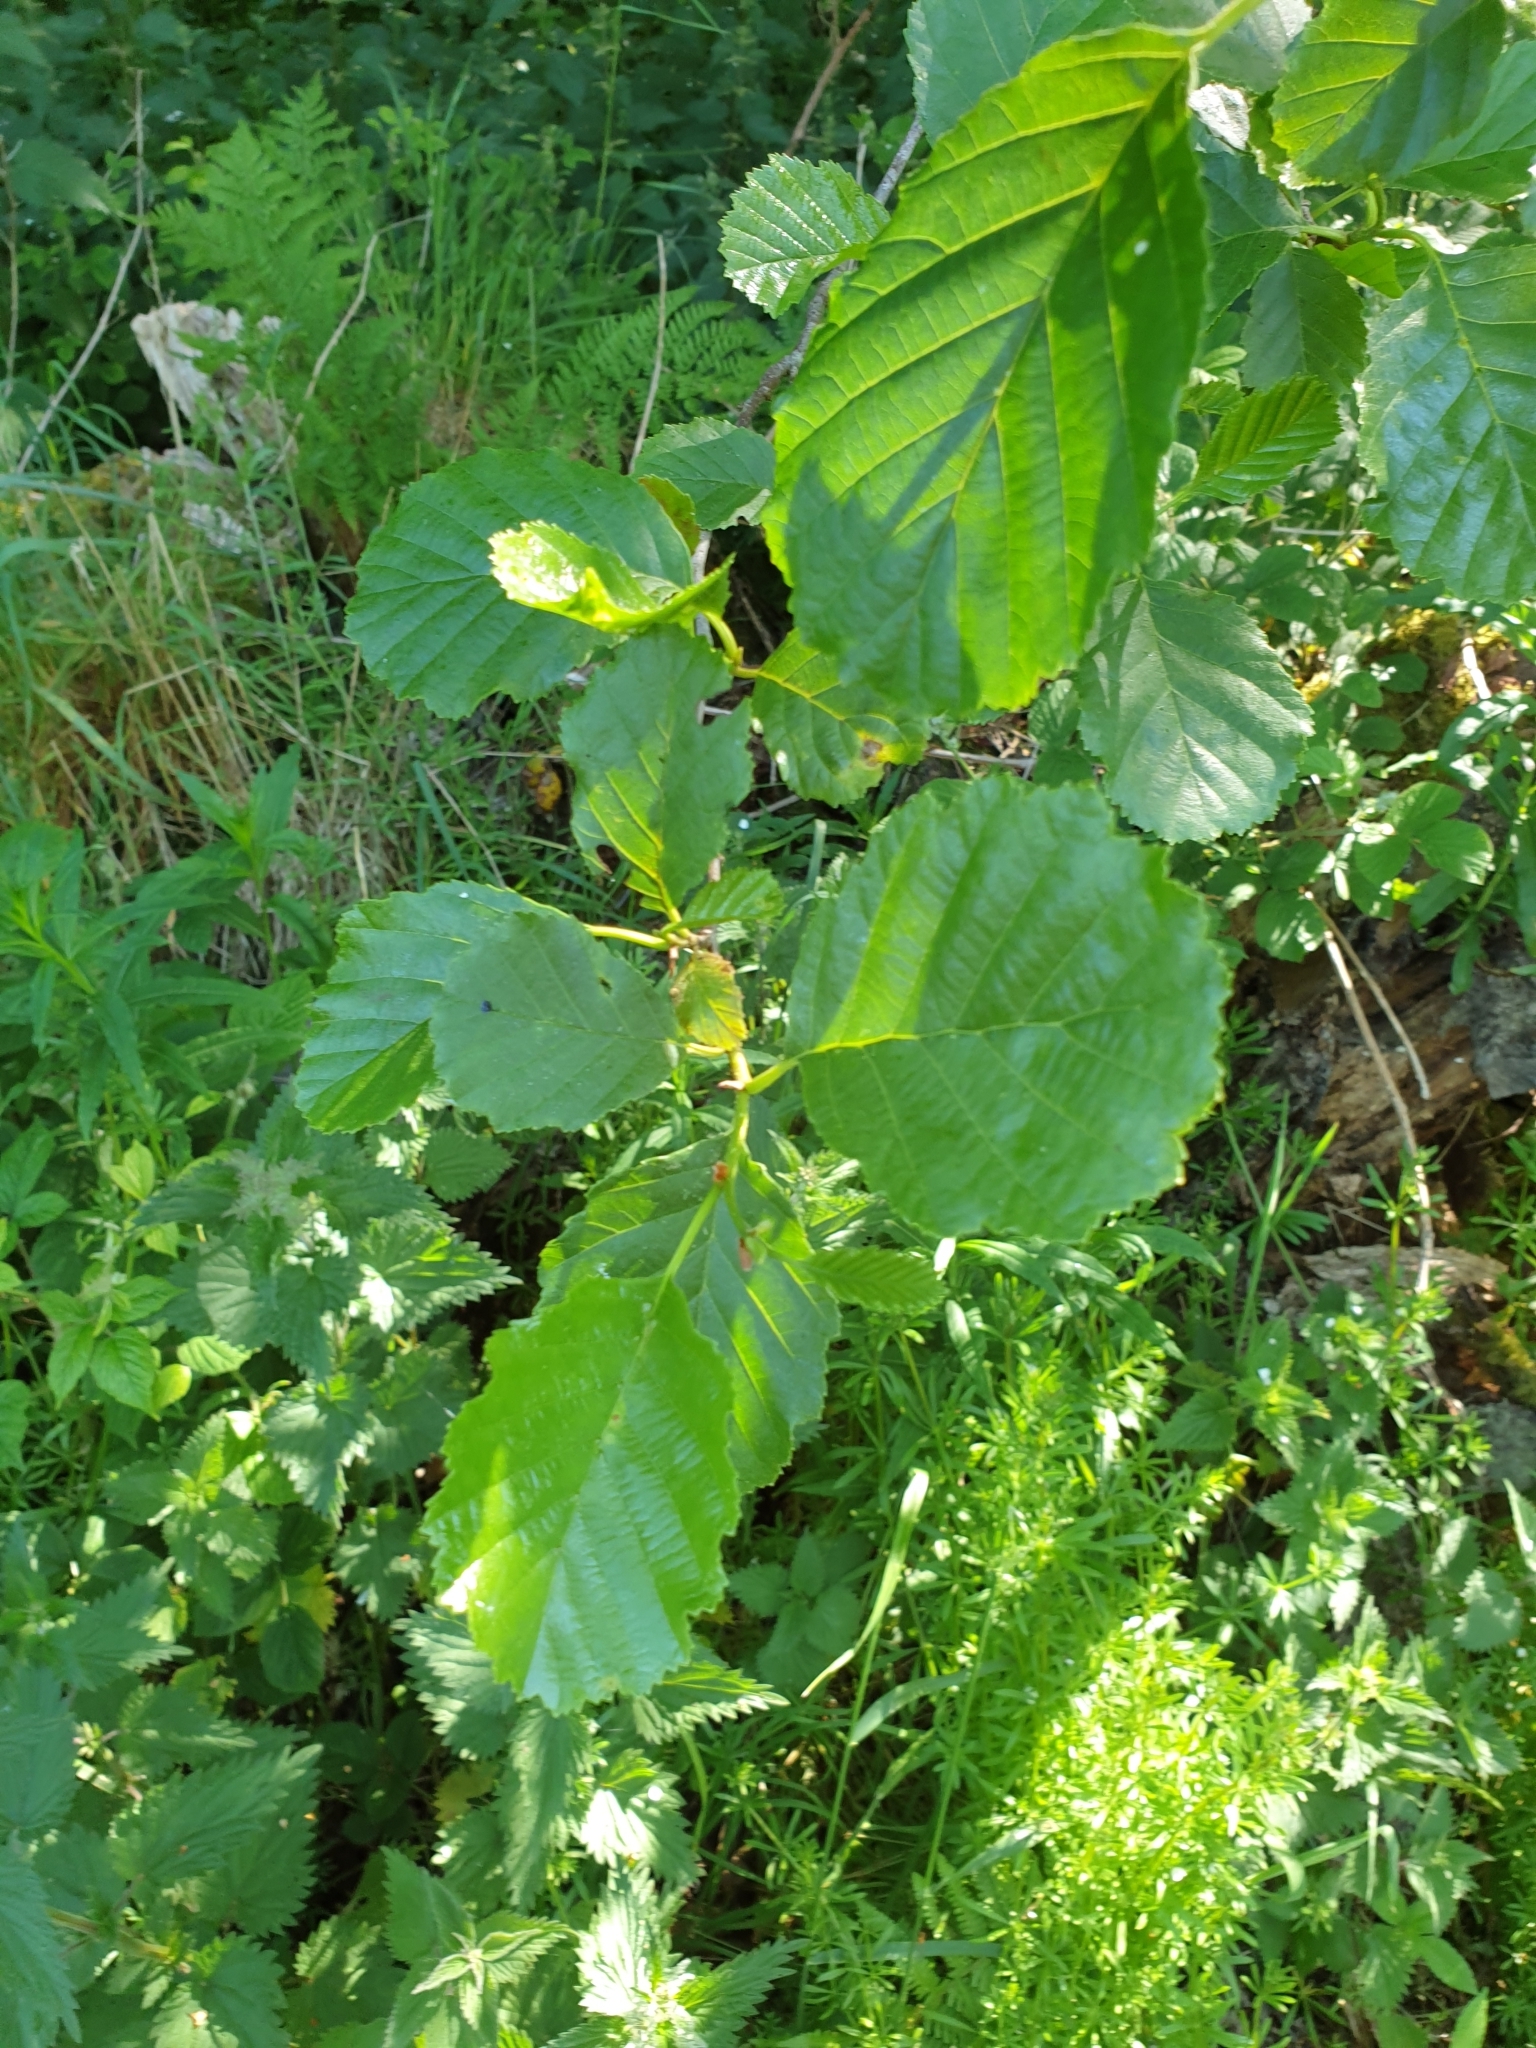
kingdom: Plantae
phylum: Tracheophyta
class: Magnoliopsida
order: Fagales
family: Betulaceae
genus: Alnus
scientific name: Alnus glutinosa
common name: Black alder
